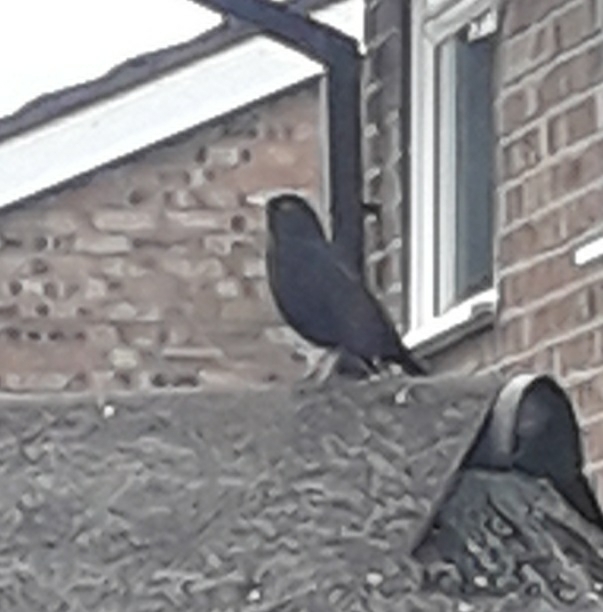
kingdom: Animalia
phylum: Chordata
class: Aves
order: Passeriformes
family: Turdidae
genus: Turdus
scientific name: Turdus merula
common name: Common blackbird
